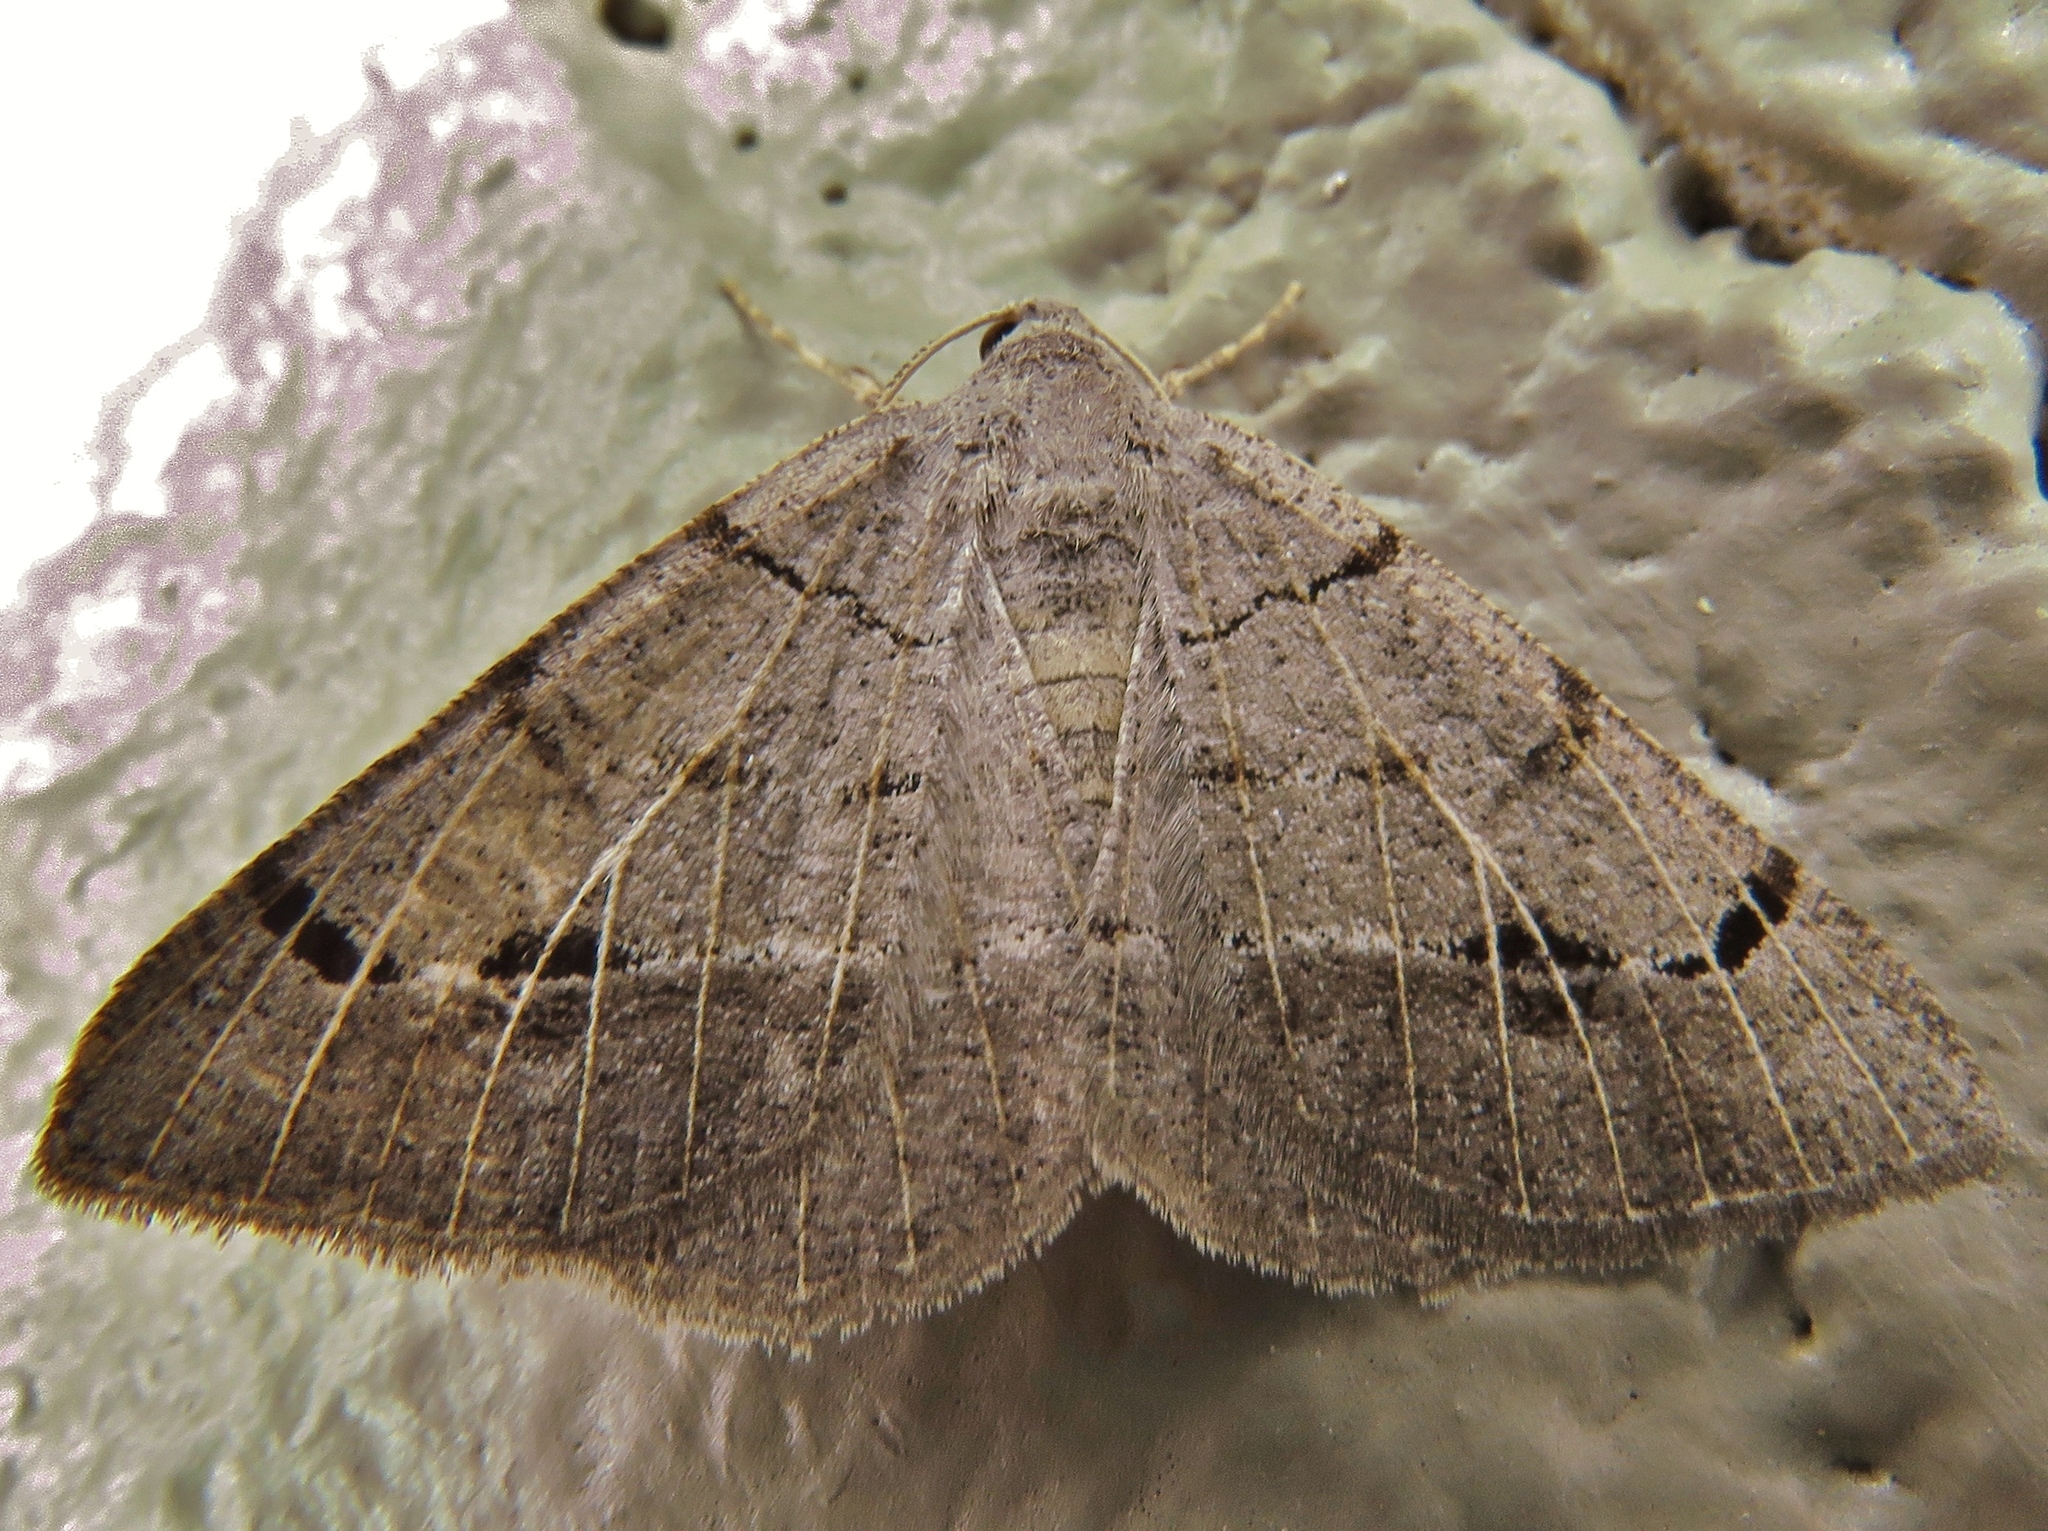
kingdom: Animalia
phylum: Arthropoda
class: Insecta
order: Lepidoptera
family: Geometridae
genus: Isturgia
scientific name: Isturgia dislocaria
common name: Pale-viened enconista
